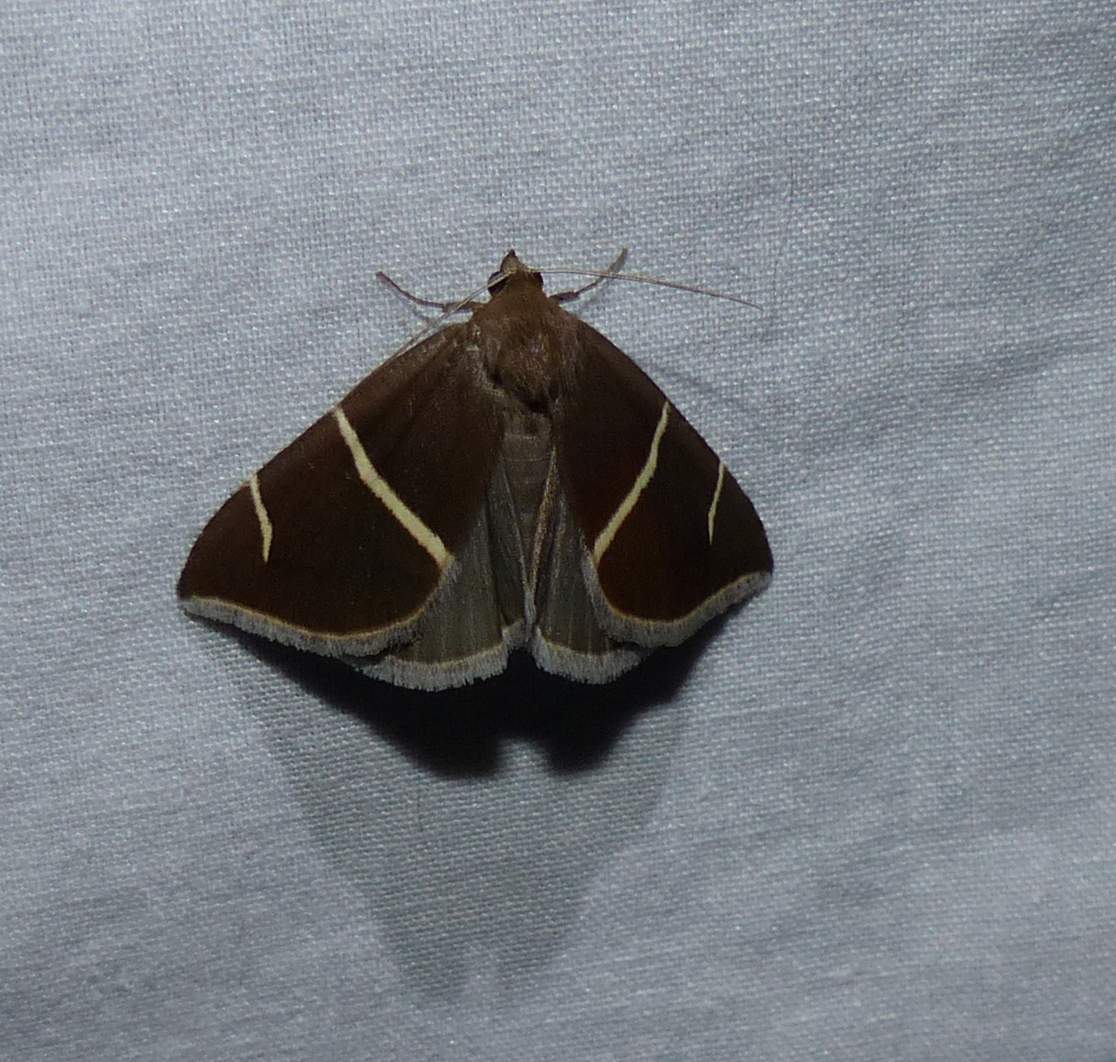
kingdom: Animalia
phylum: Arthropoda
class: Insecta
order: Lepidoptera
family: Erebidae
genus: Argyrostrotis
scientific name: Argyrostrotis anilis
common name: Short-lined chocolate
